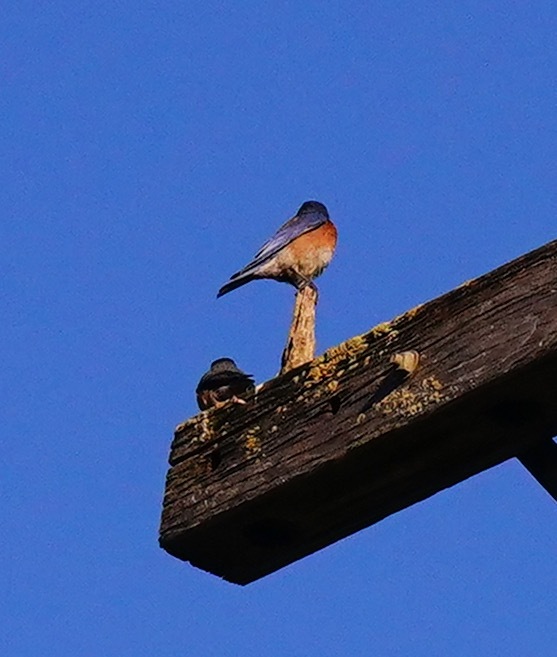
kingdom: Animalia
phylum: Chordata
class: Aves
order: Passeriformes
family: Turdidae
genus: Sialia
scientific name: Sialia mexicana
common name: Western bluebird
